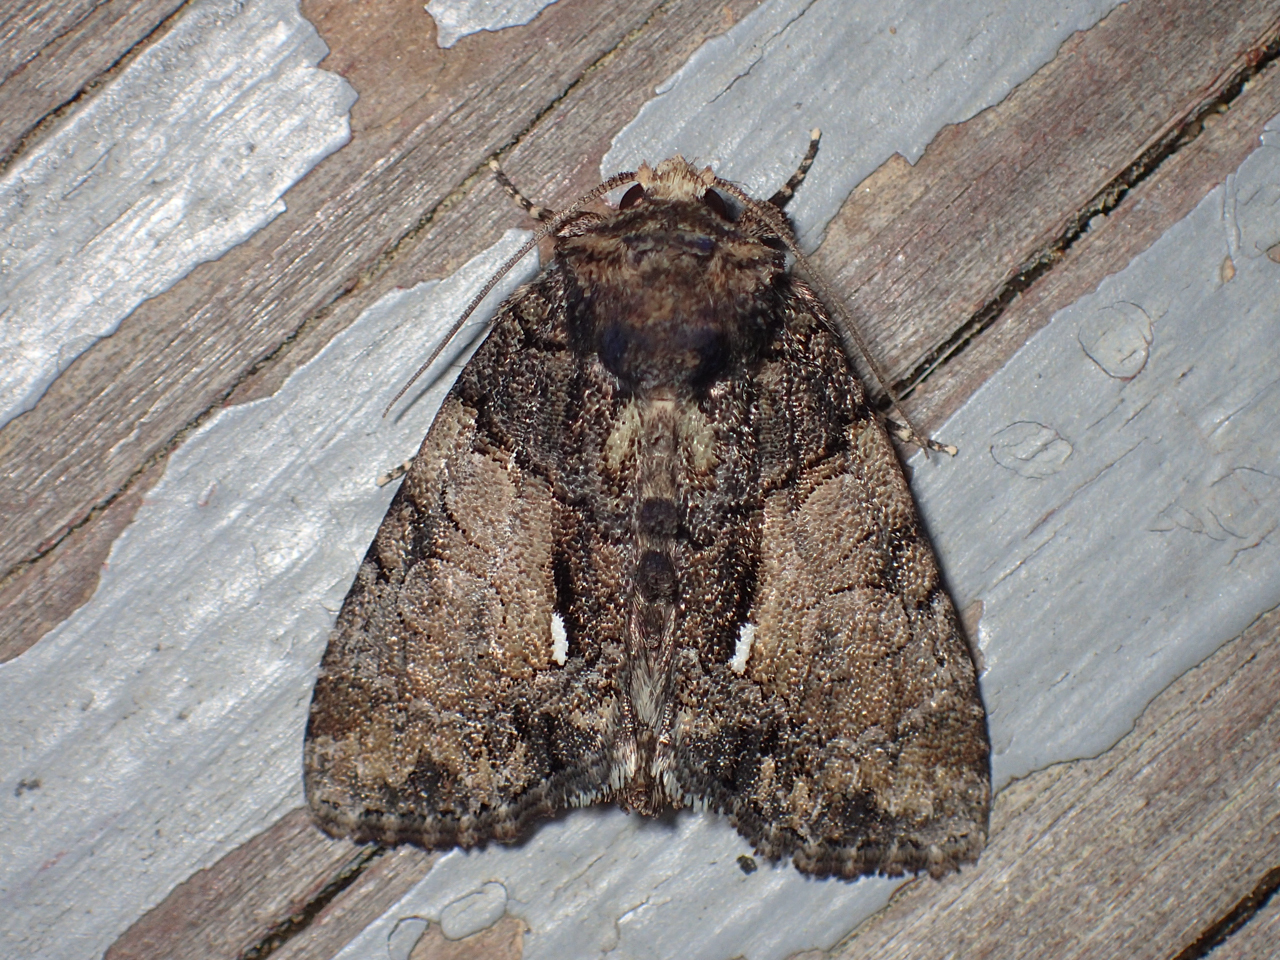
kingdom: Animalia
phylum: Arthropoda
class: Insecta
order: Lepidoptera
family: Noctuidae
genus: Chytonix
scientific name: Chytonix palliatricula
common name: Cloaked marvel
